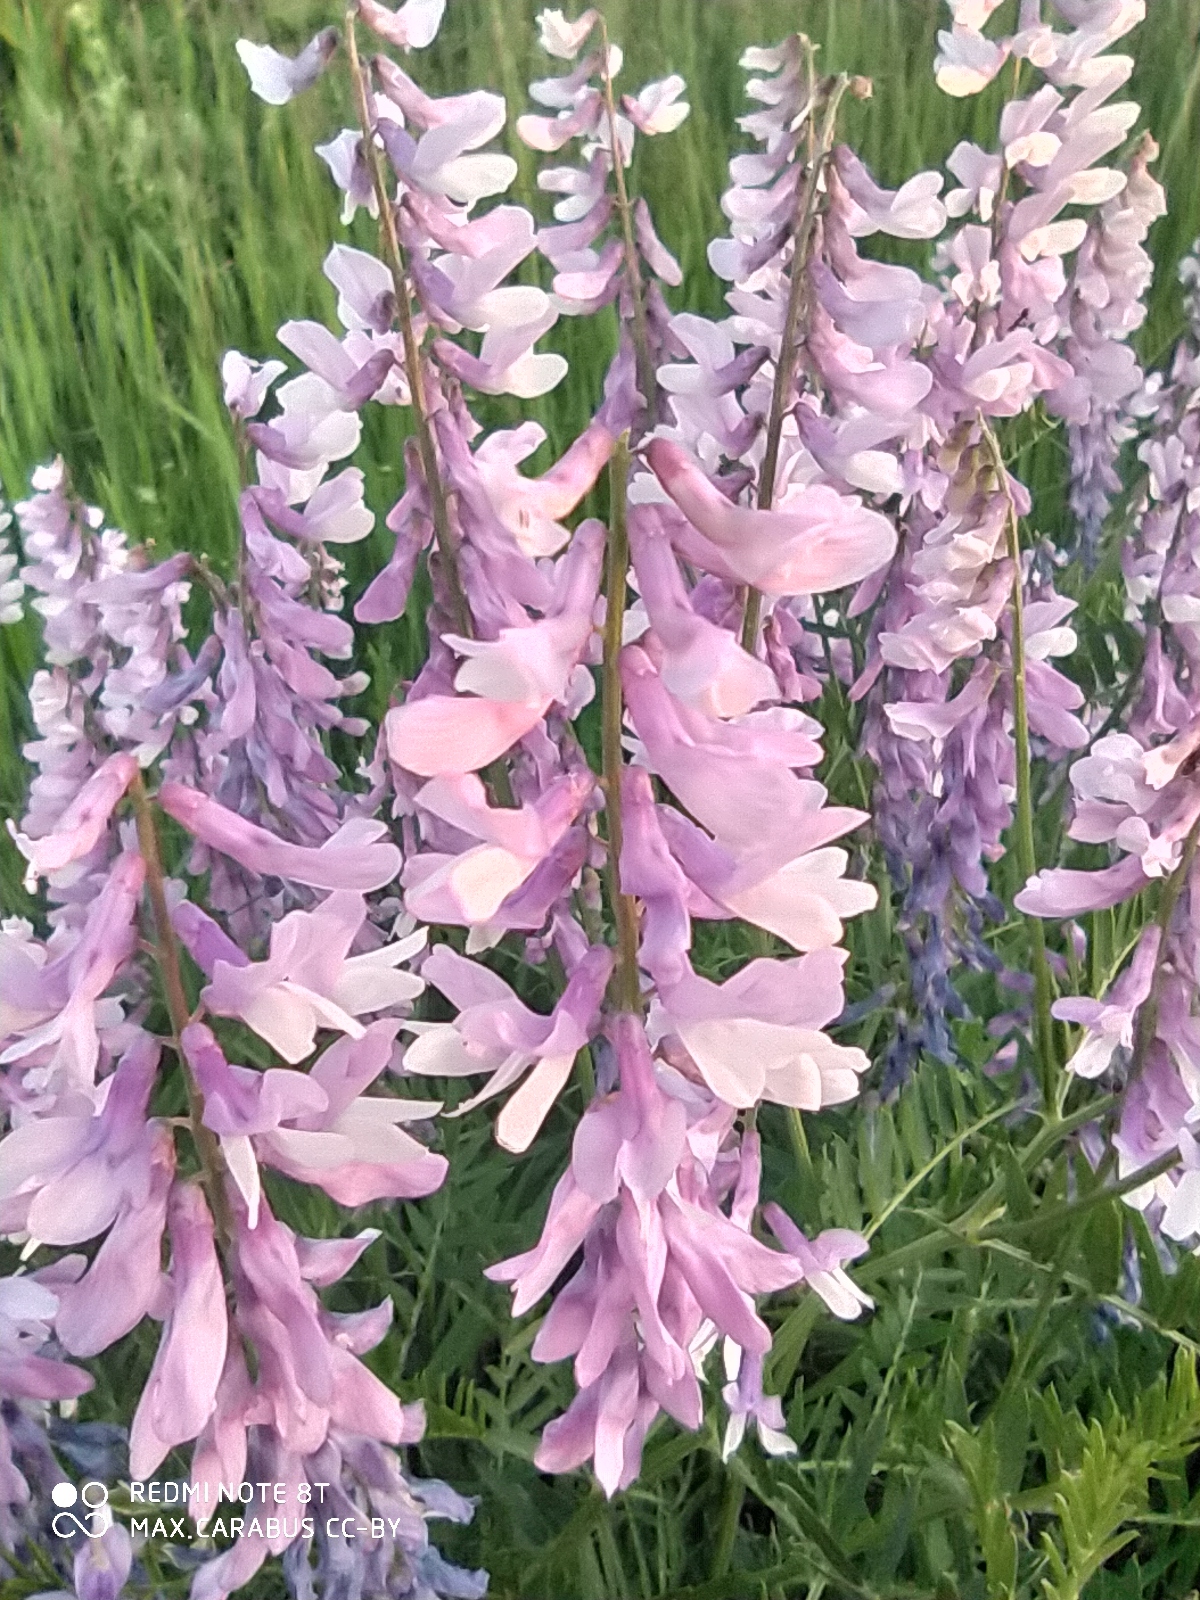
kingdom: Plantae
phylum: Tracheophyta
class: Magnoliopsida
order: Fabales
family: Fabaceae
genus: Vicia
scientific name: Vicia tenuifolia
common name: Fine-leaved vetch
